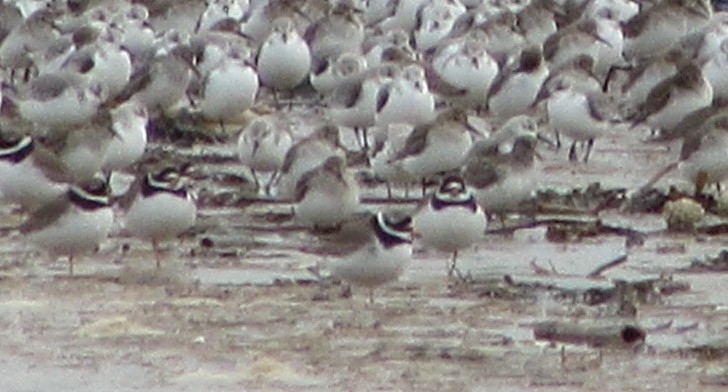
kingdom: Animalia
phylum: Chordata
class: Aves
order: Charadriiformes
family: Charadriidae
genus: Charadrius
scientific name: Charadrius hiaticula
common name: Common ringed plover
